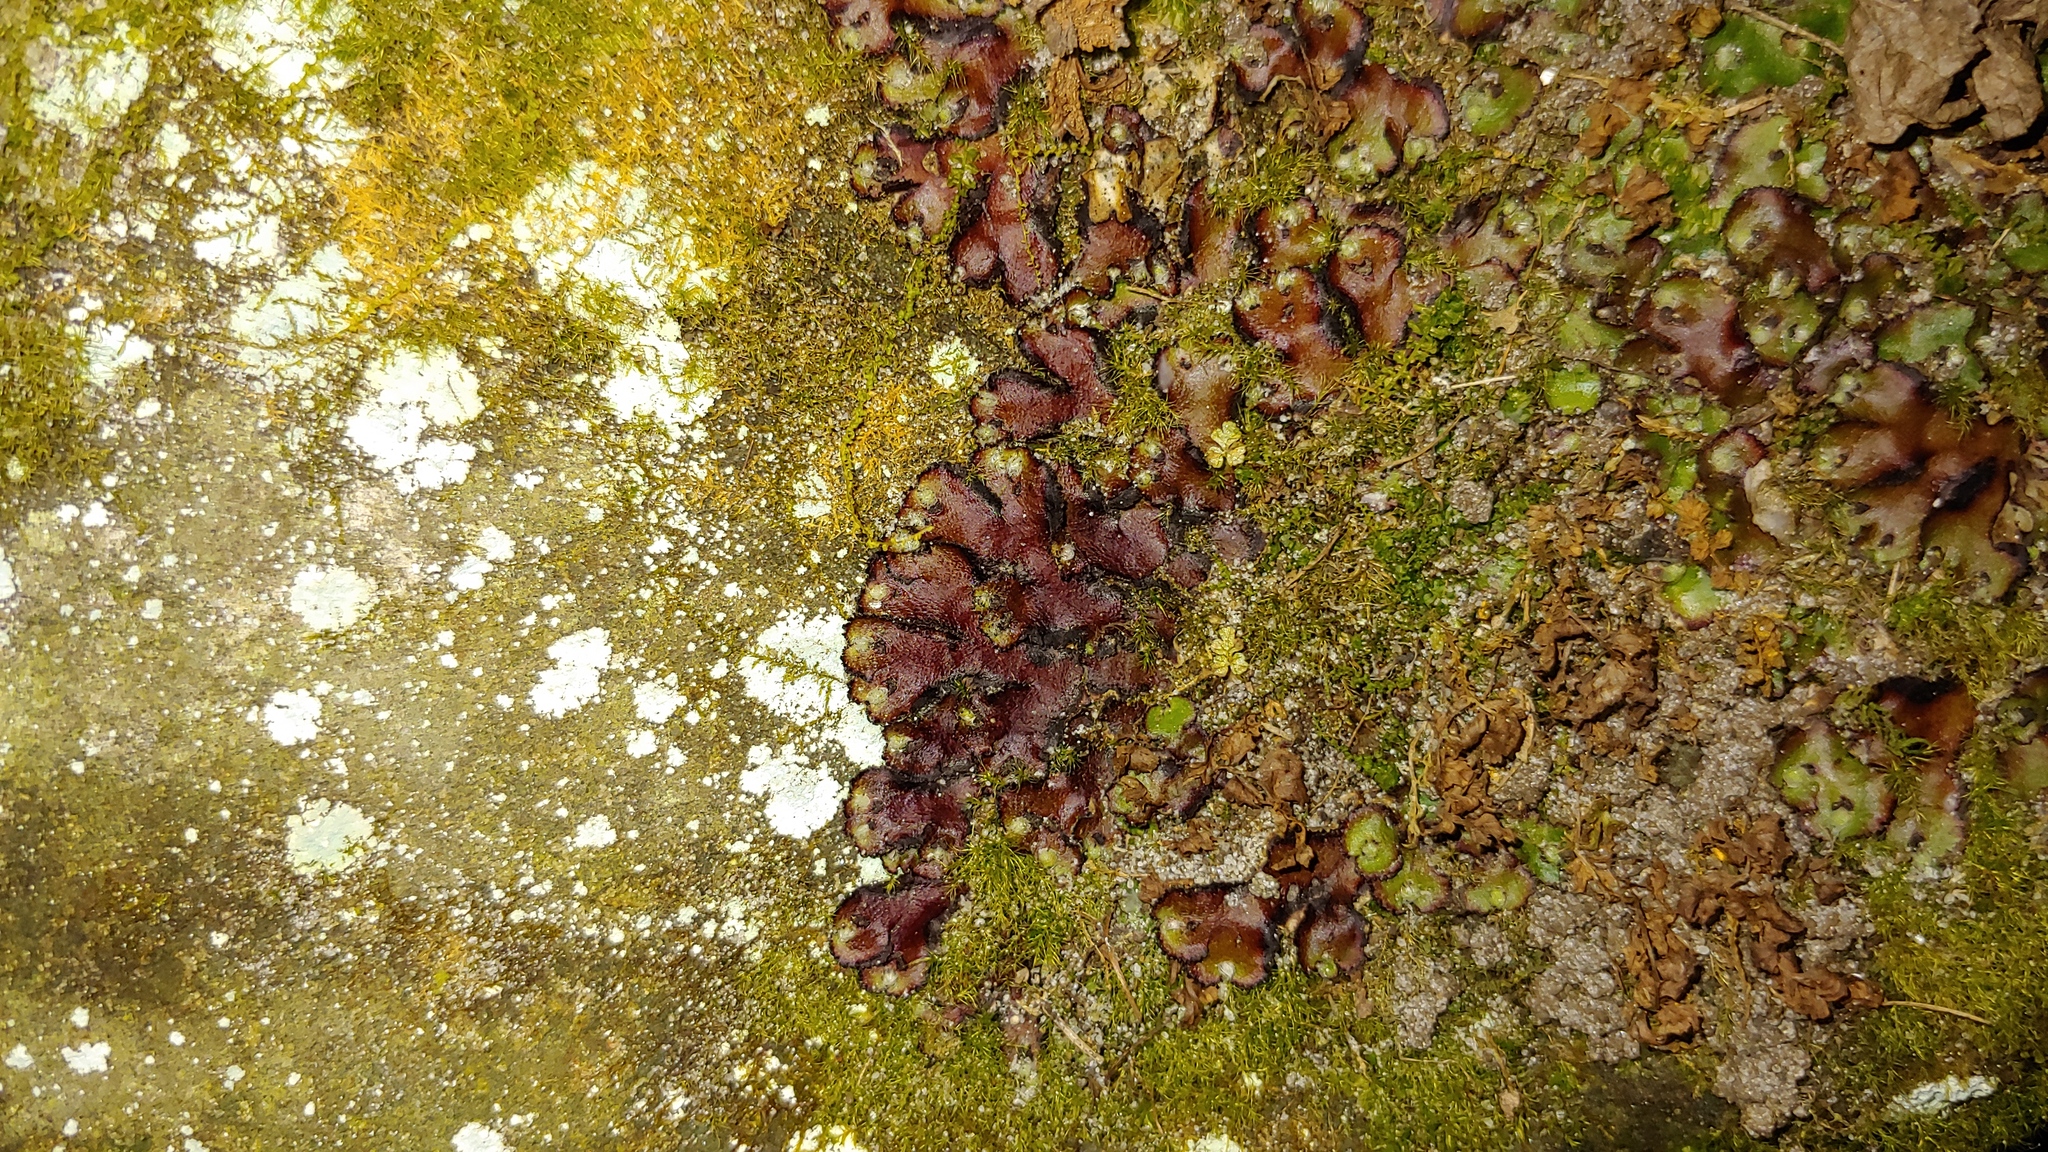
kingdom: Plantae
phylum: Marchantiophyta
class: Marchantiopsida
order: Marchantiales
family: Aytoniaceae
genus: Reboulia
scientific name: Reboulia hemisphaerica
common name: Purple-margined liverwort
